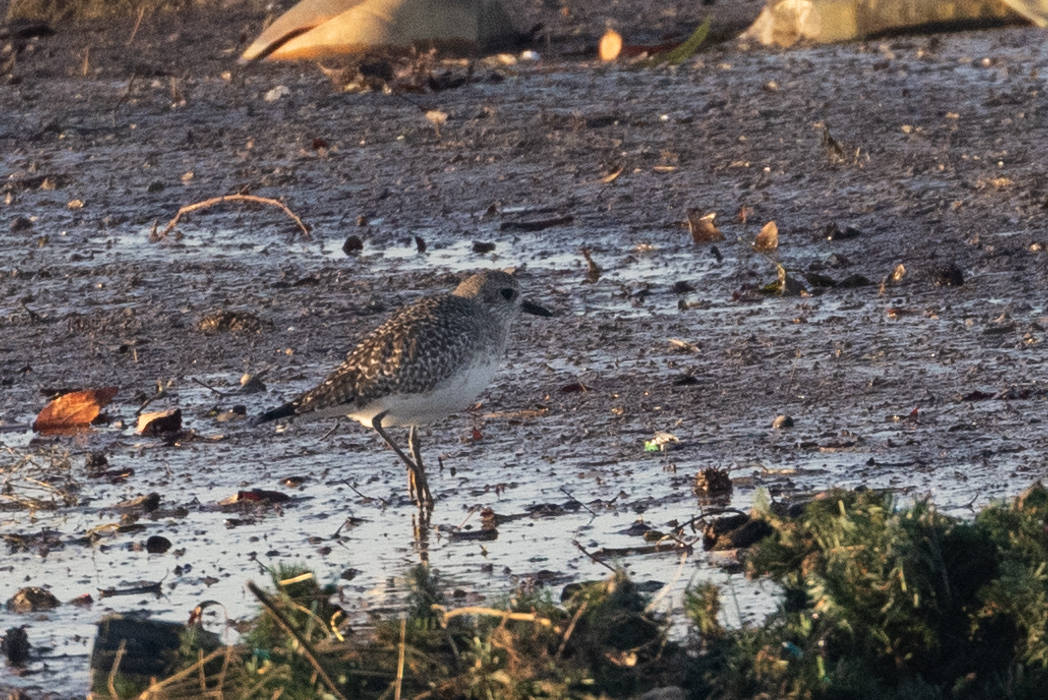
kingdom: Animalia
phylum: Chordata
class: Aves
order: Charadriiformes
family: Charadriidae
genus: Pluvialis
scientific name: Pluvialis squatarola
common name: Grey plover
